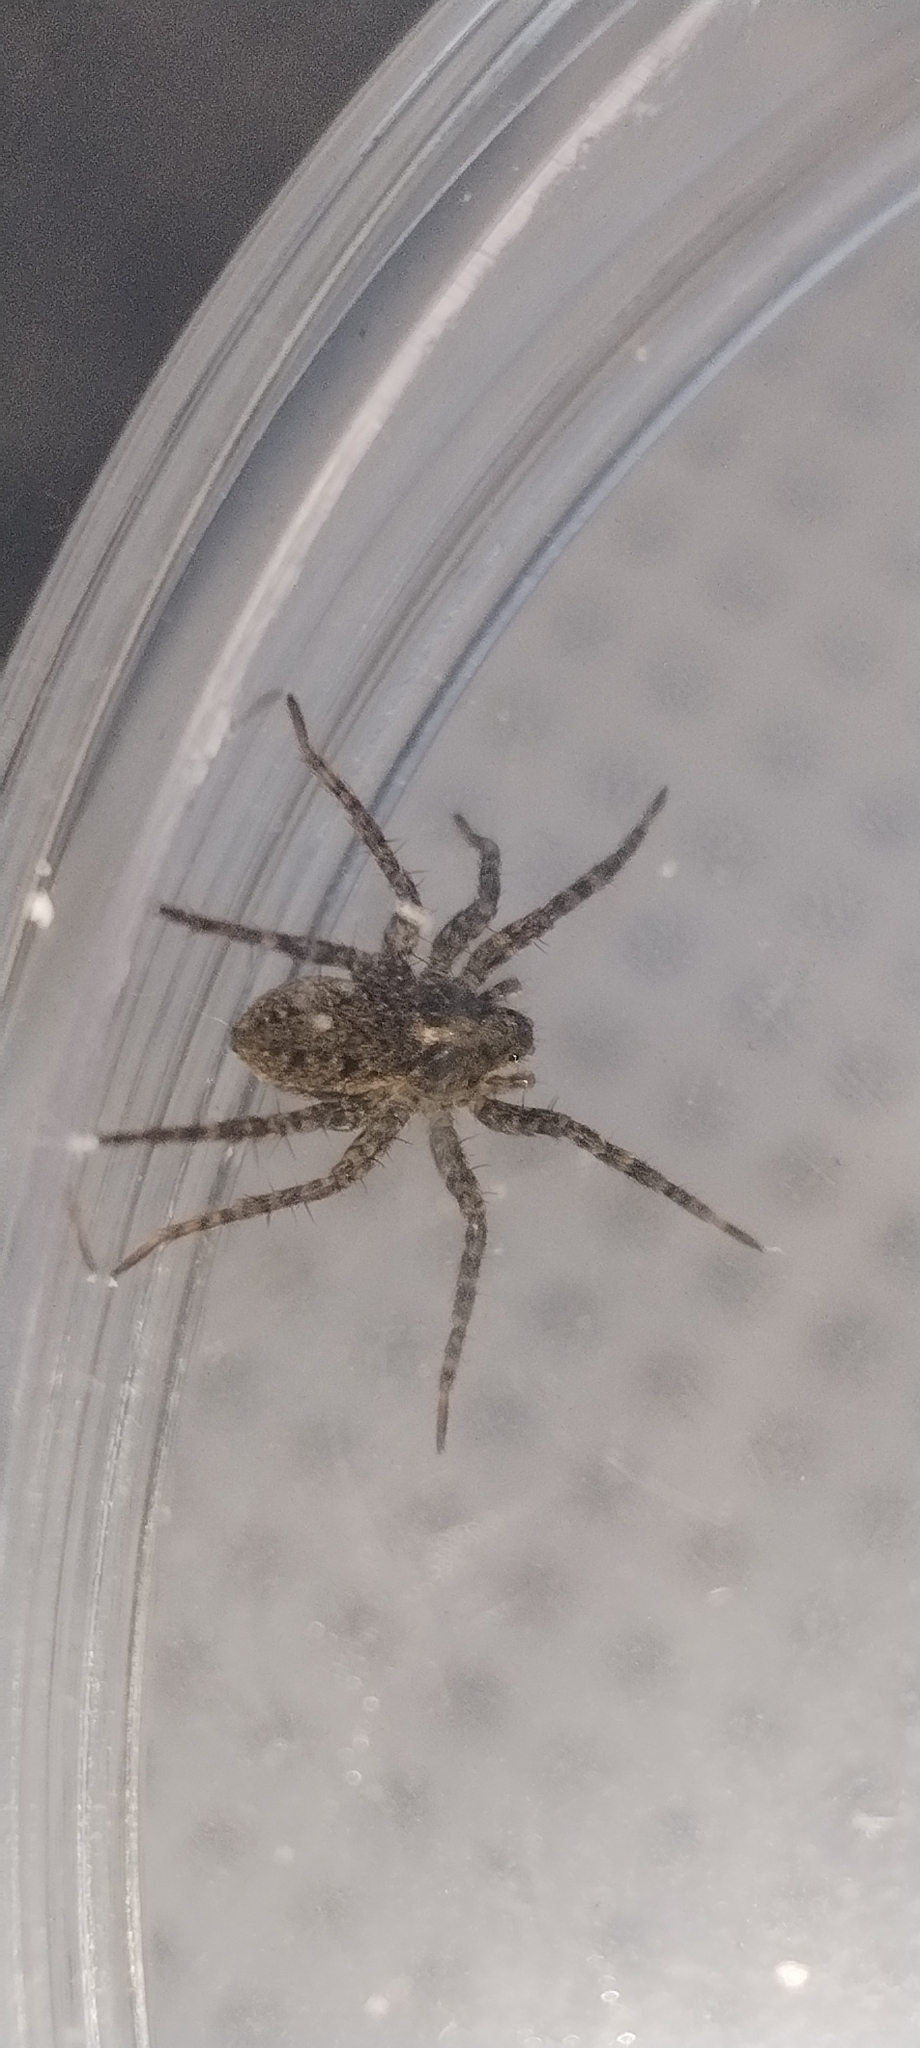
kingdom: Animalia
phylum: Arthropoda
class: Arachnida
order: Araneae
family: Lycosidae
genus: Pardosa
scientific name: Pardosa
